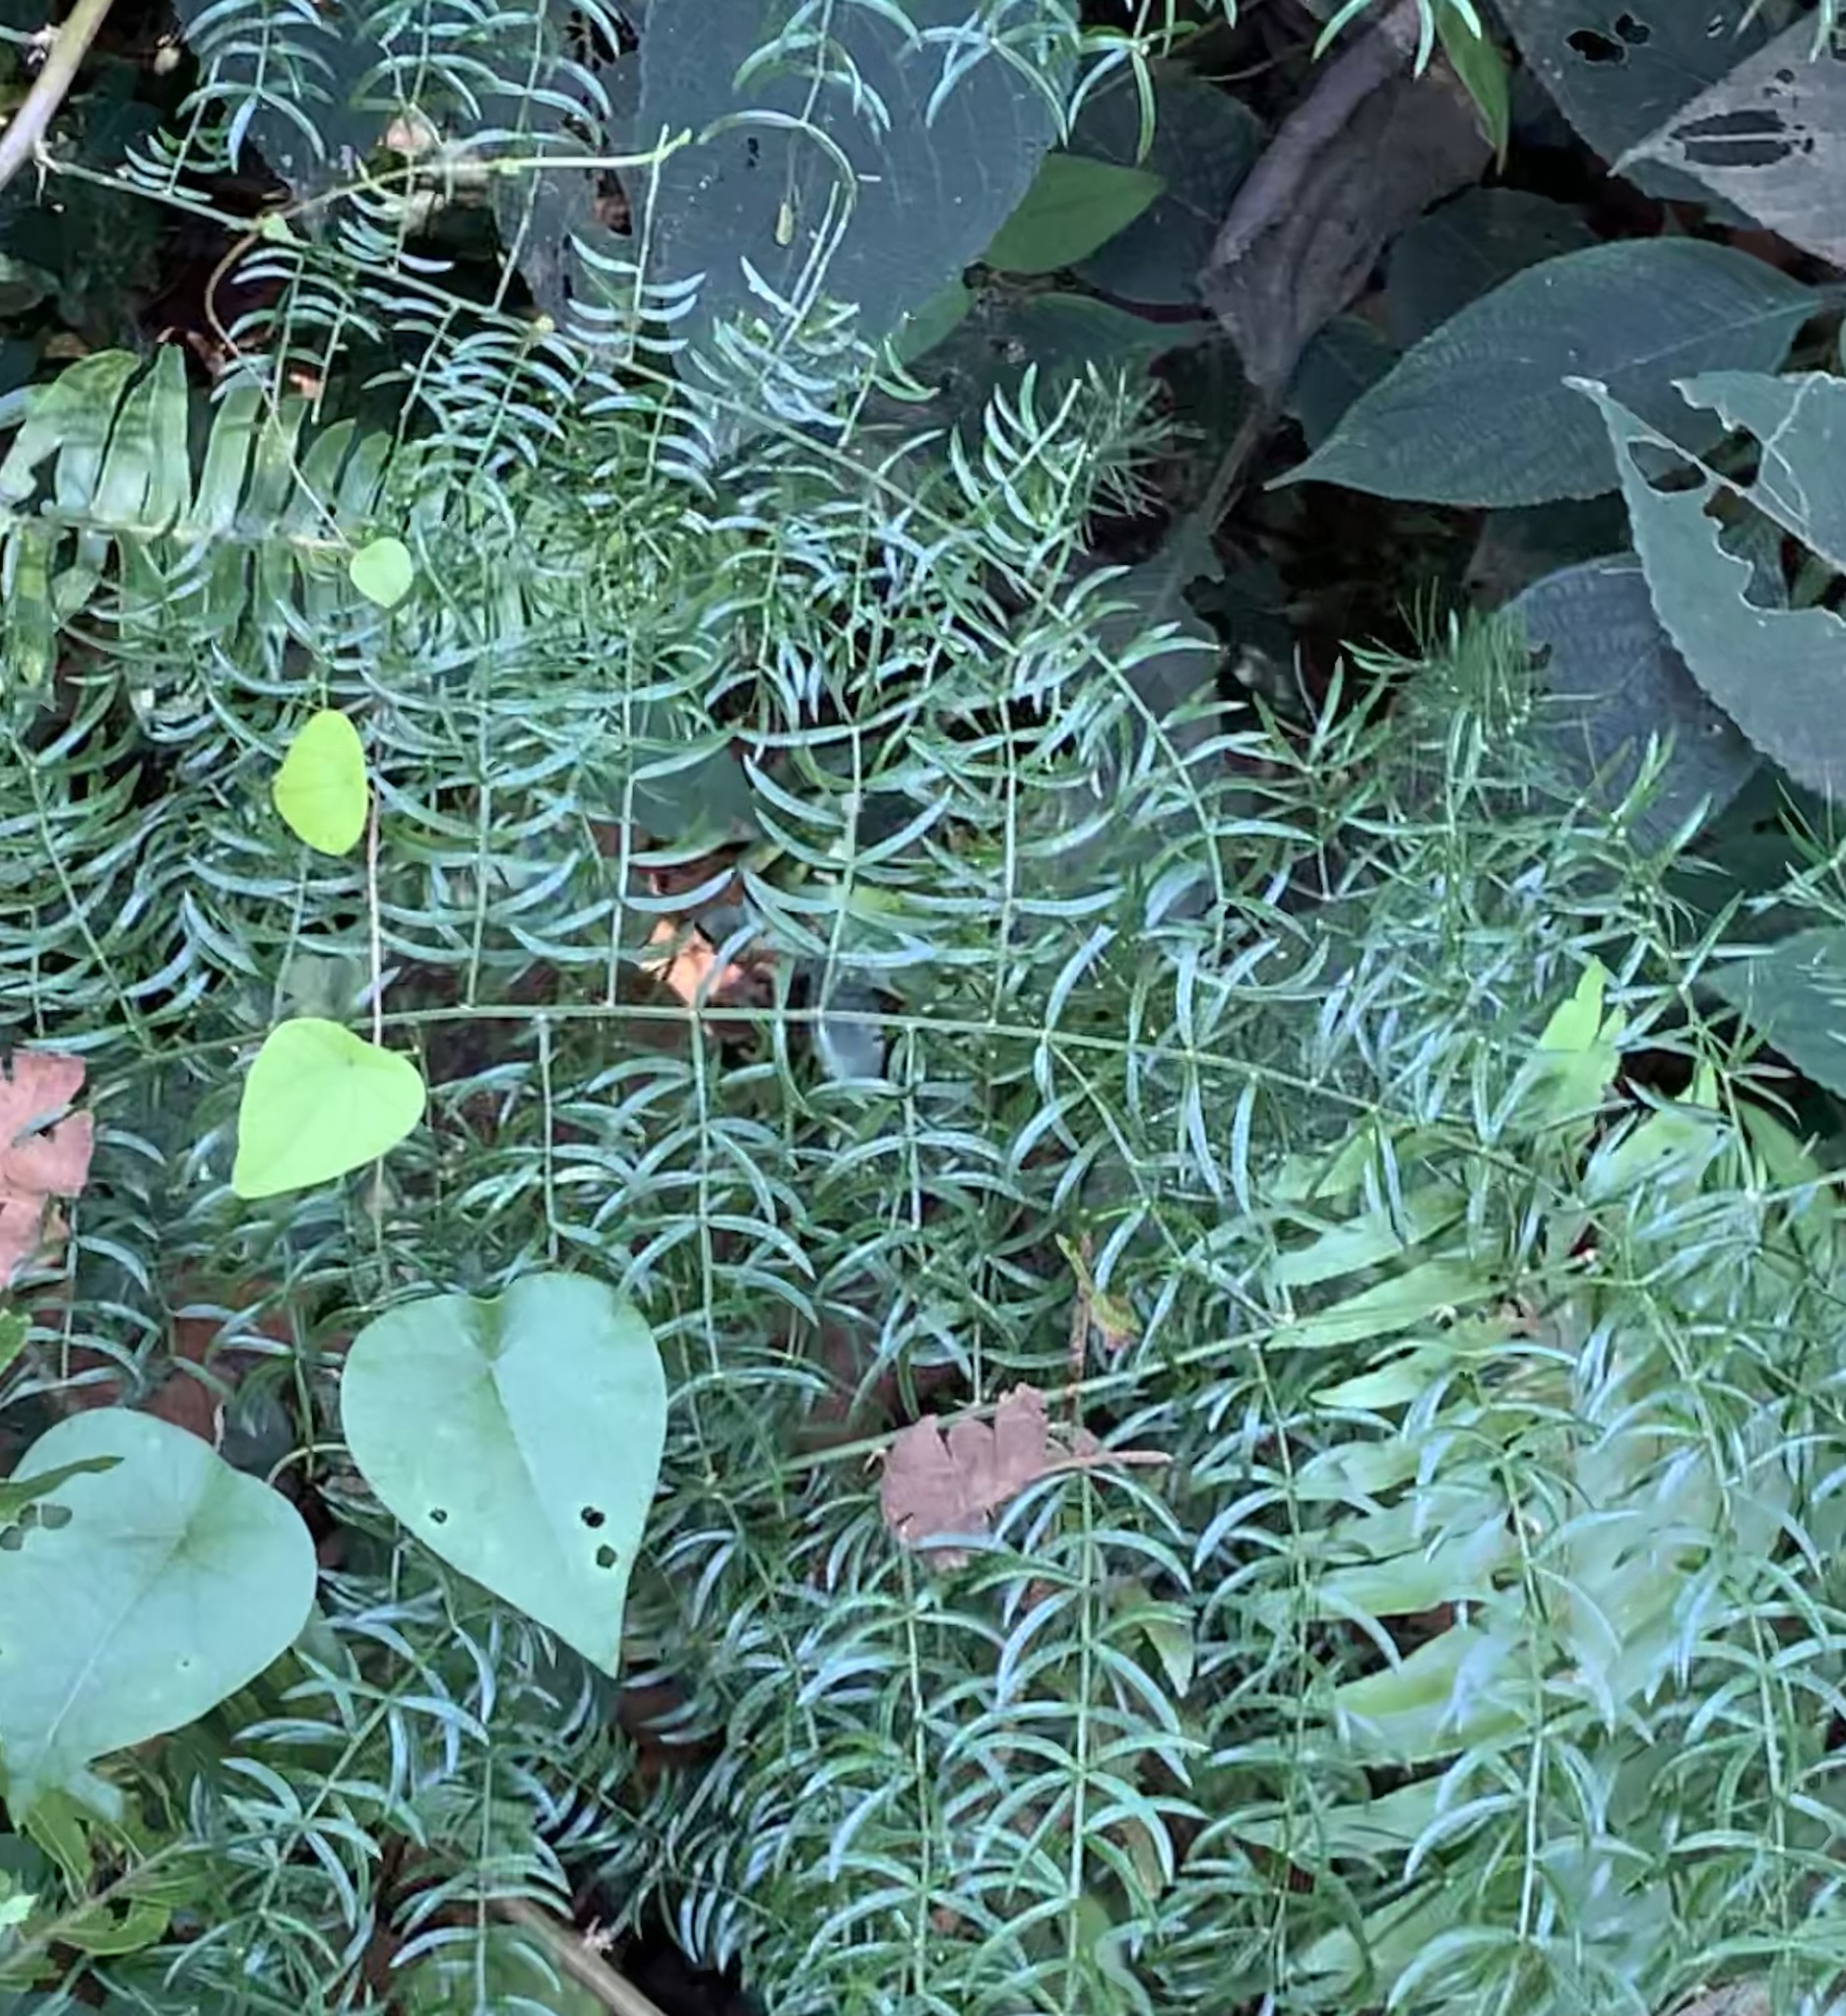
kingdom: Plantae
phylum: Tracheophyta
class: Liliopsida
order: Asparagales
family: Asparagaceae
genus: Asparagus
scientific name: Asparagus gonoclados
